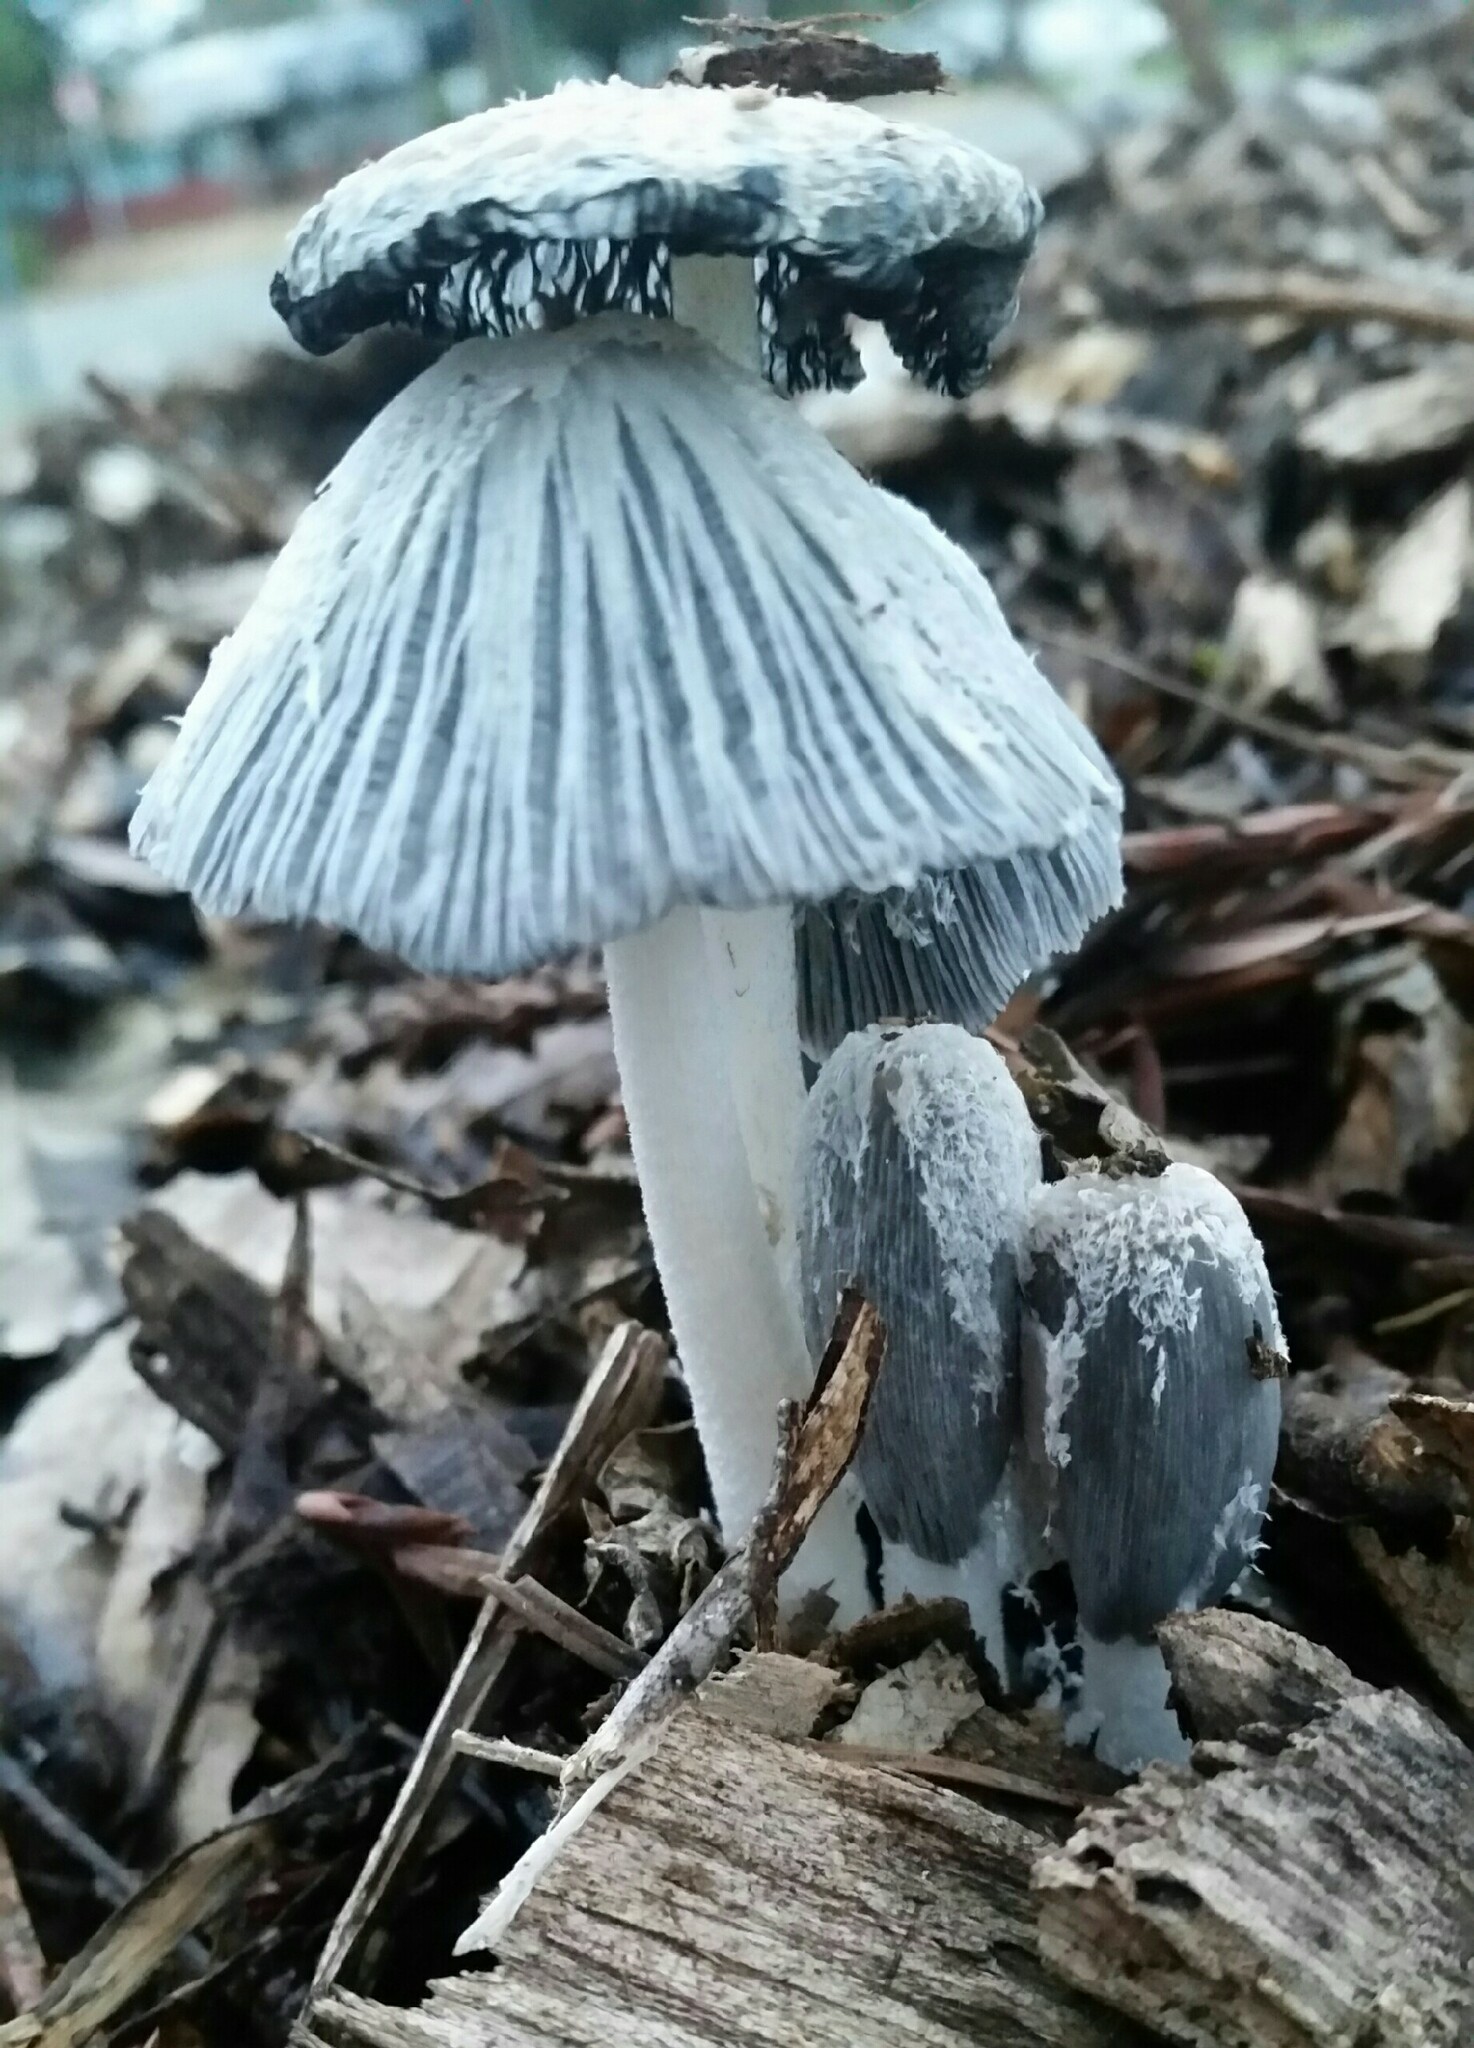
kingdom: Fungi
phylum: Basidiomycota
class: Agaricomycetes
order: Agaricales
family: Psathyrellaceae
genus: Coprinopsis
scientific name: Coprinopsis lagopus
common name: Hare'sfoot inkcap
